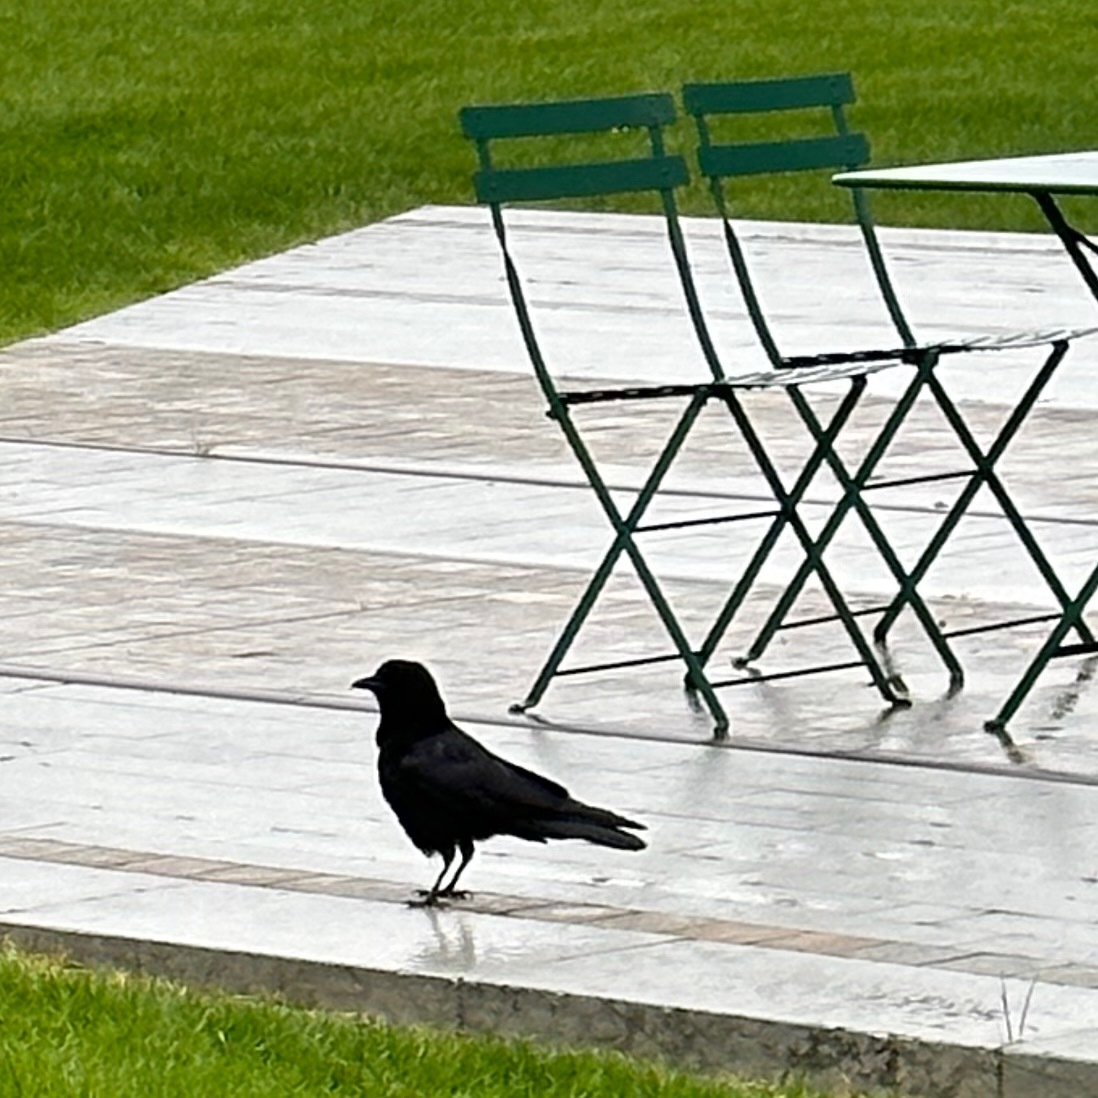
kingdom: Animalia
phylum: Chordata
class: Aves
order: Passeriformes
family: Corvidae
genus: Corvus
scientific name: Corvus brachyrhynchos
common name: American crow
